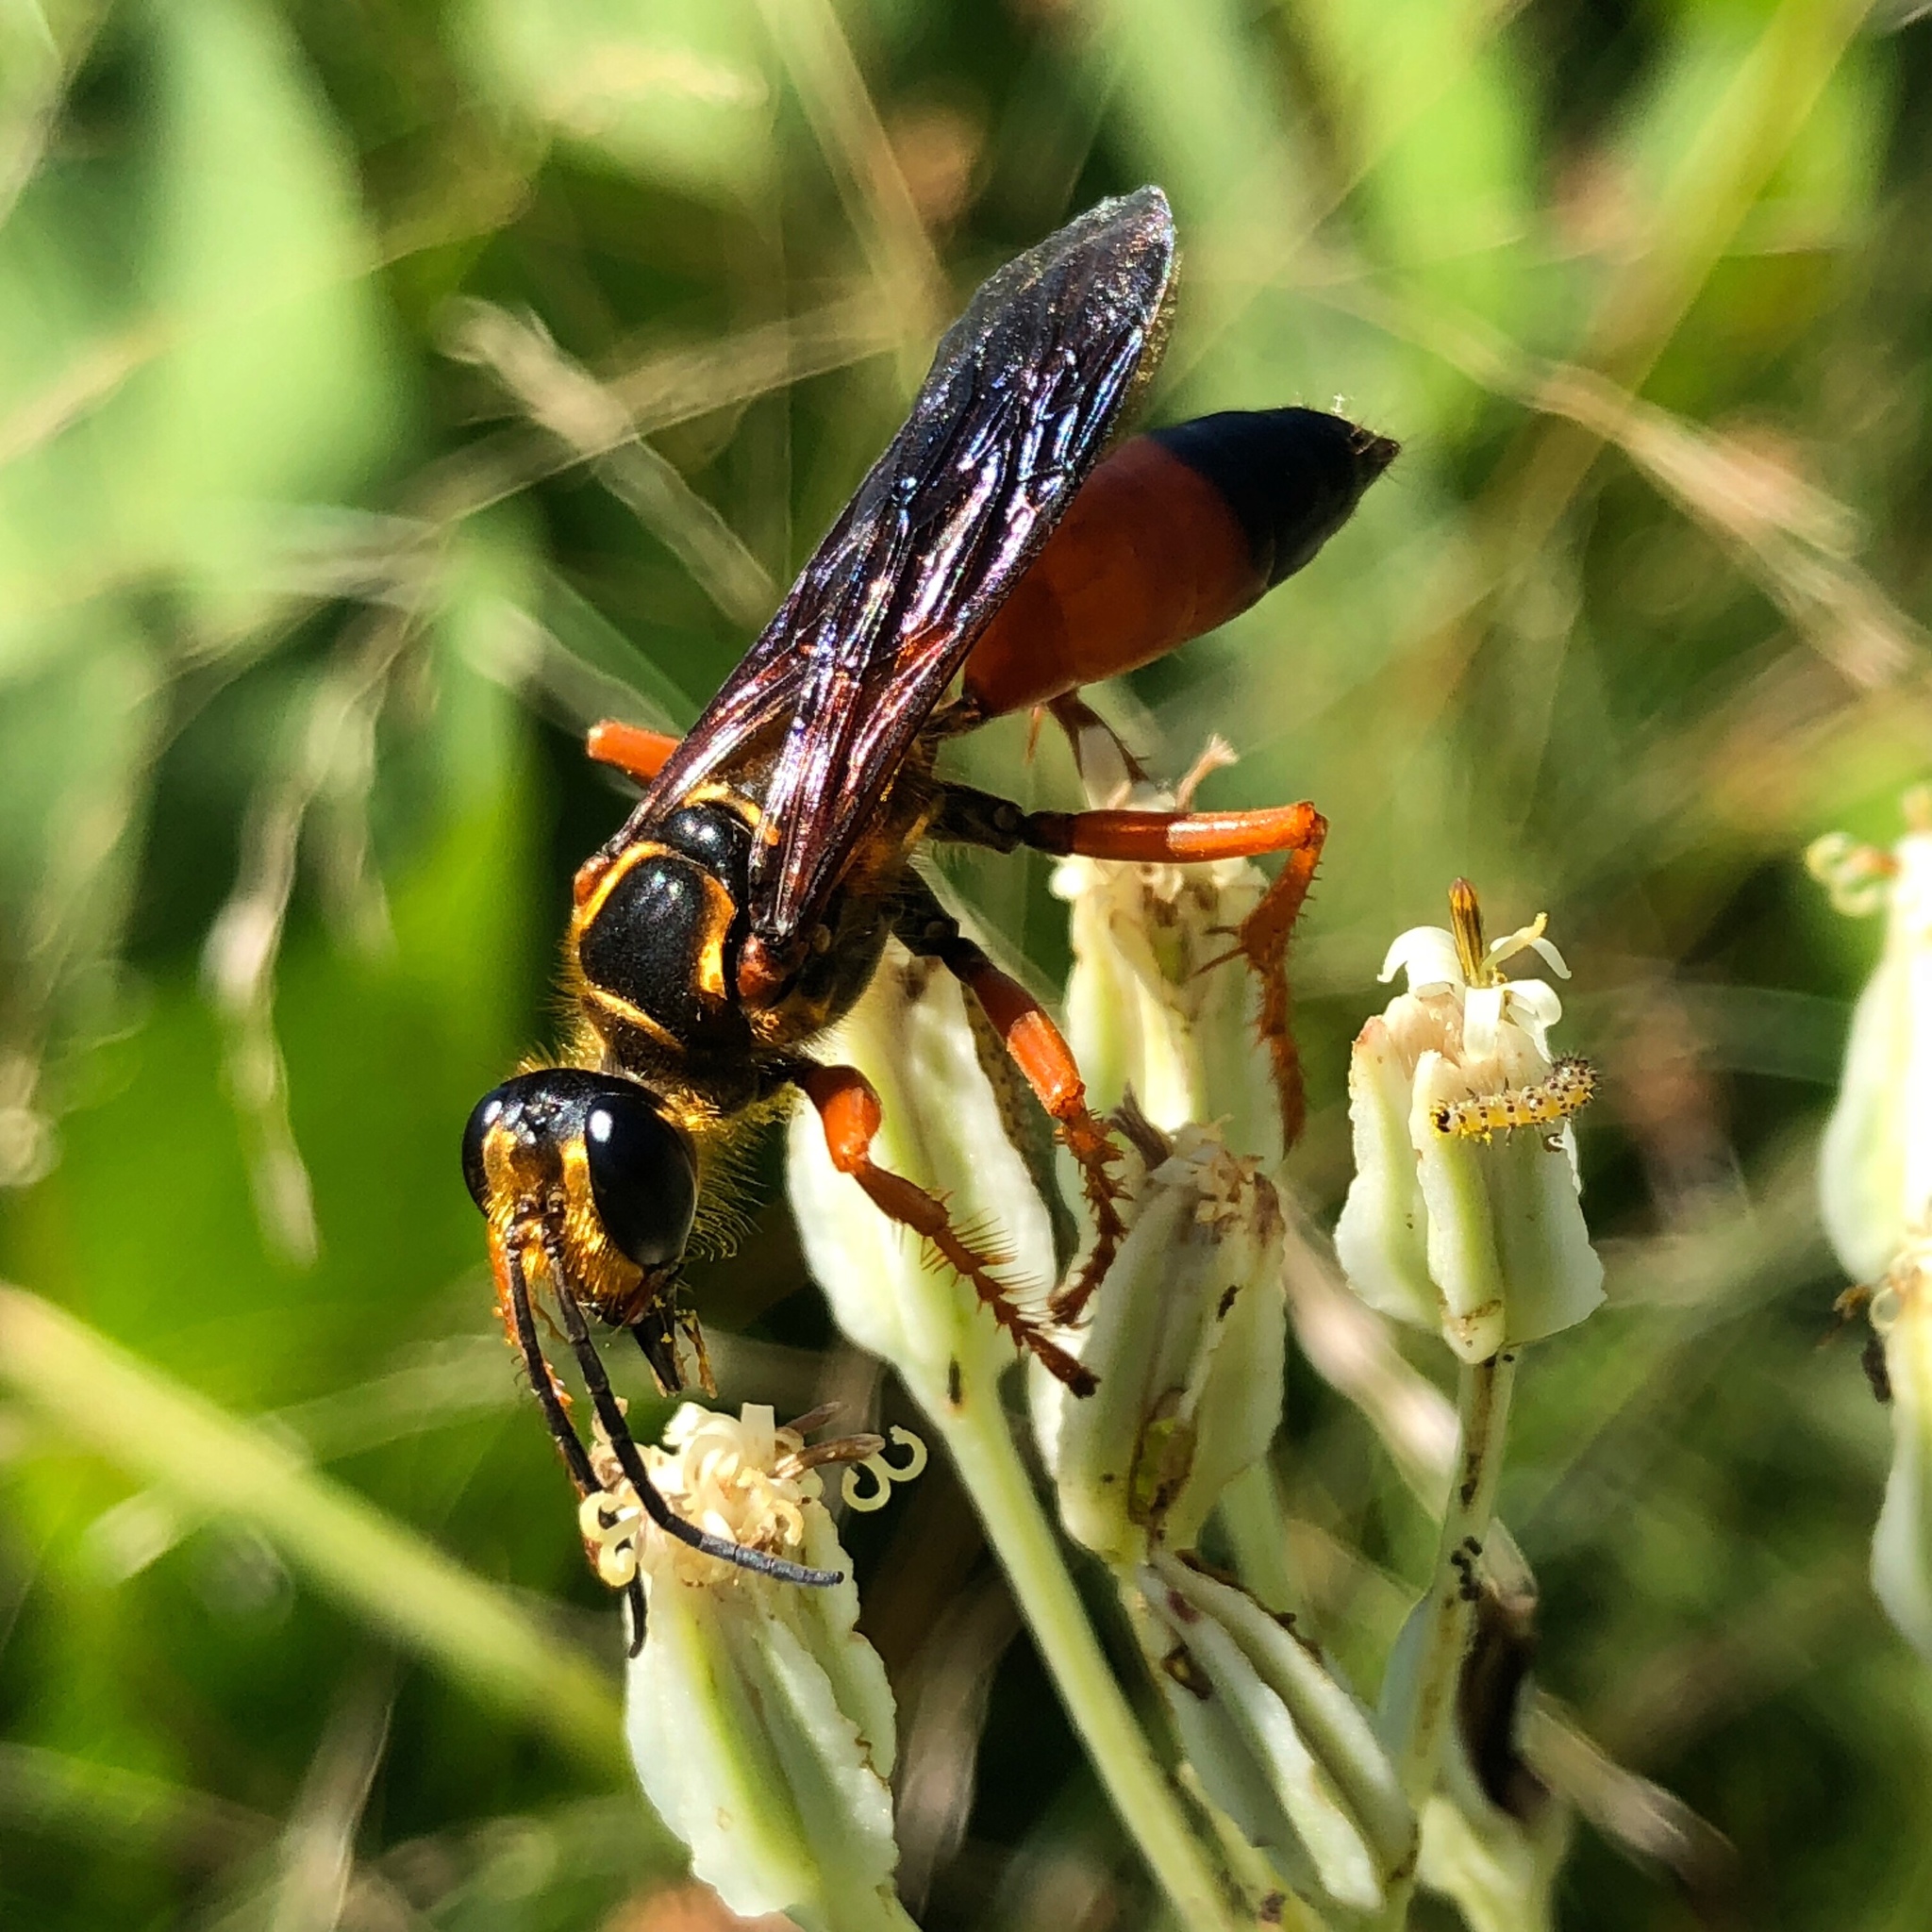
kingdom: Animalia
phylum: Arthropoda
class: Insecta
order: Hymenoptera
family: Sphecidae
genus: Sphex
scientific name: Sphex ichneumoneus
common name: Great golden digger wasp
